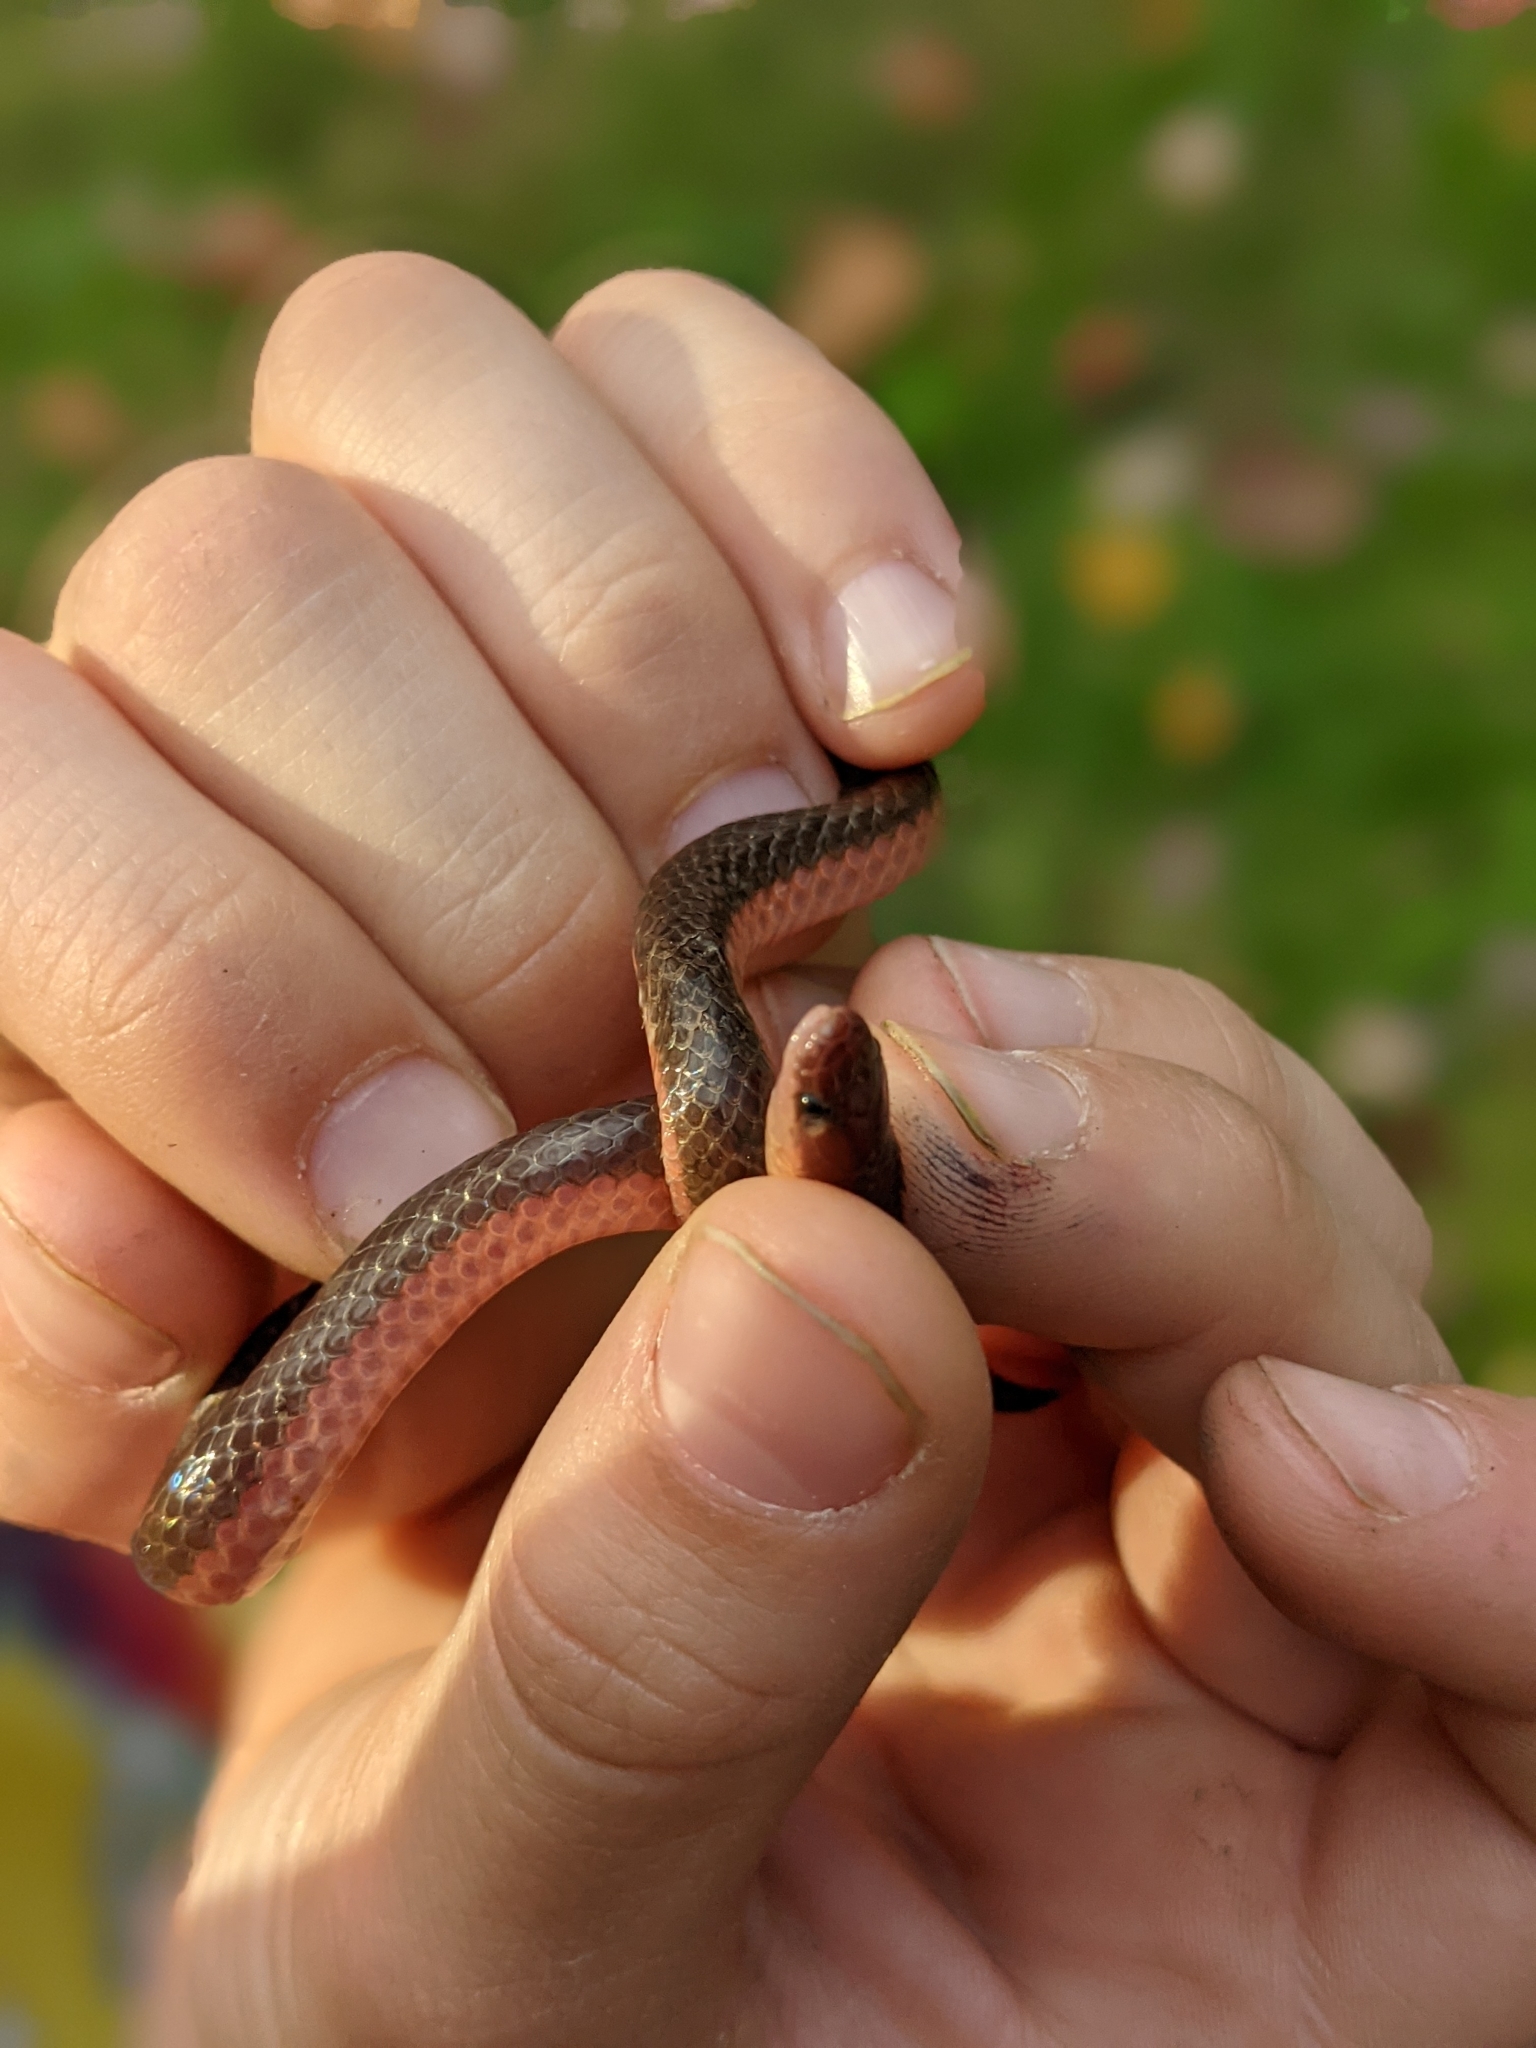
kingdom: Animalia
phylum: Chordata
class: Squamata
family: Colubridae
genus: Carphophis
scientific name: Carphophis amoenus
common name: Eastern worm snake
